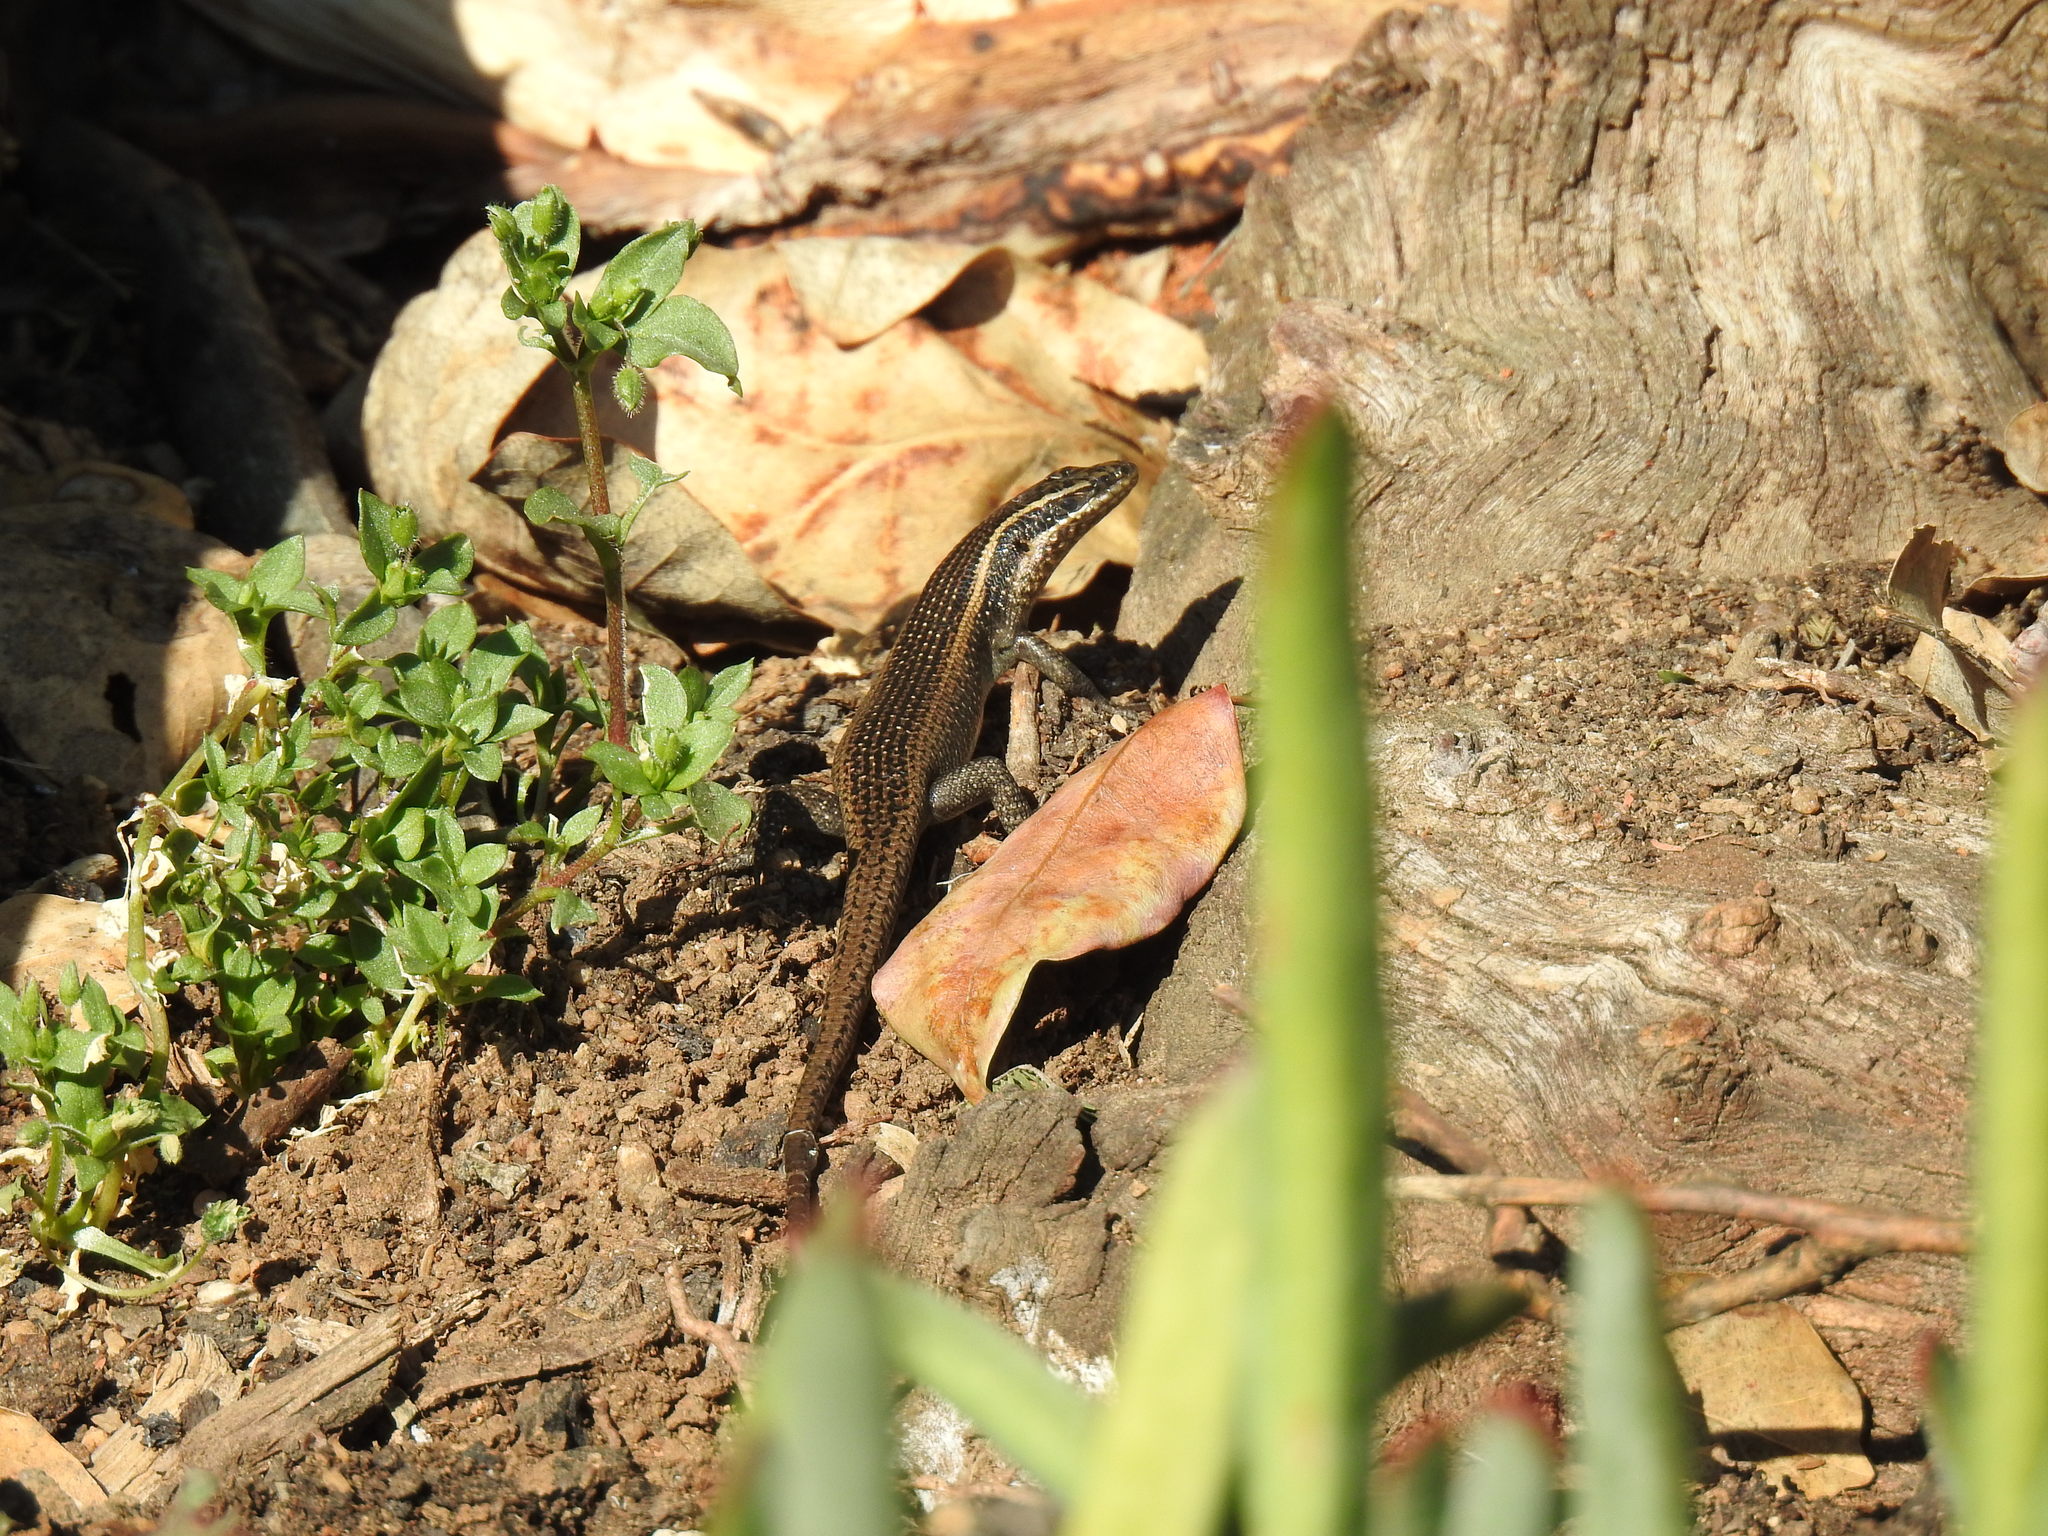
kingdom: Animalia
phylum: Chordata
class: Squamata
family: Scincidae
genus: Trachylepis
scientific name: Trachylepis punctatissima
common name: Montane speckled skink
